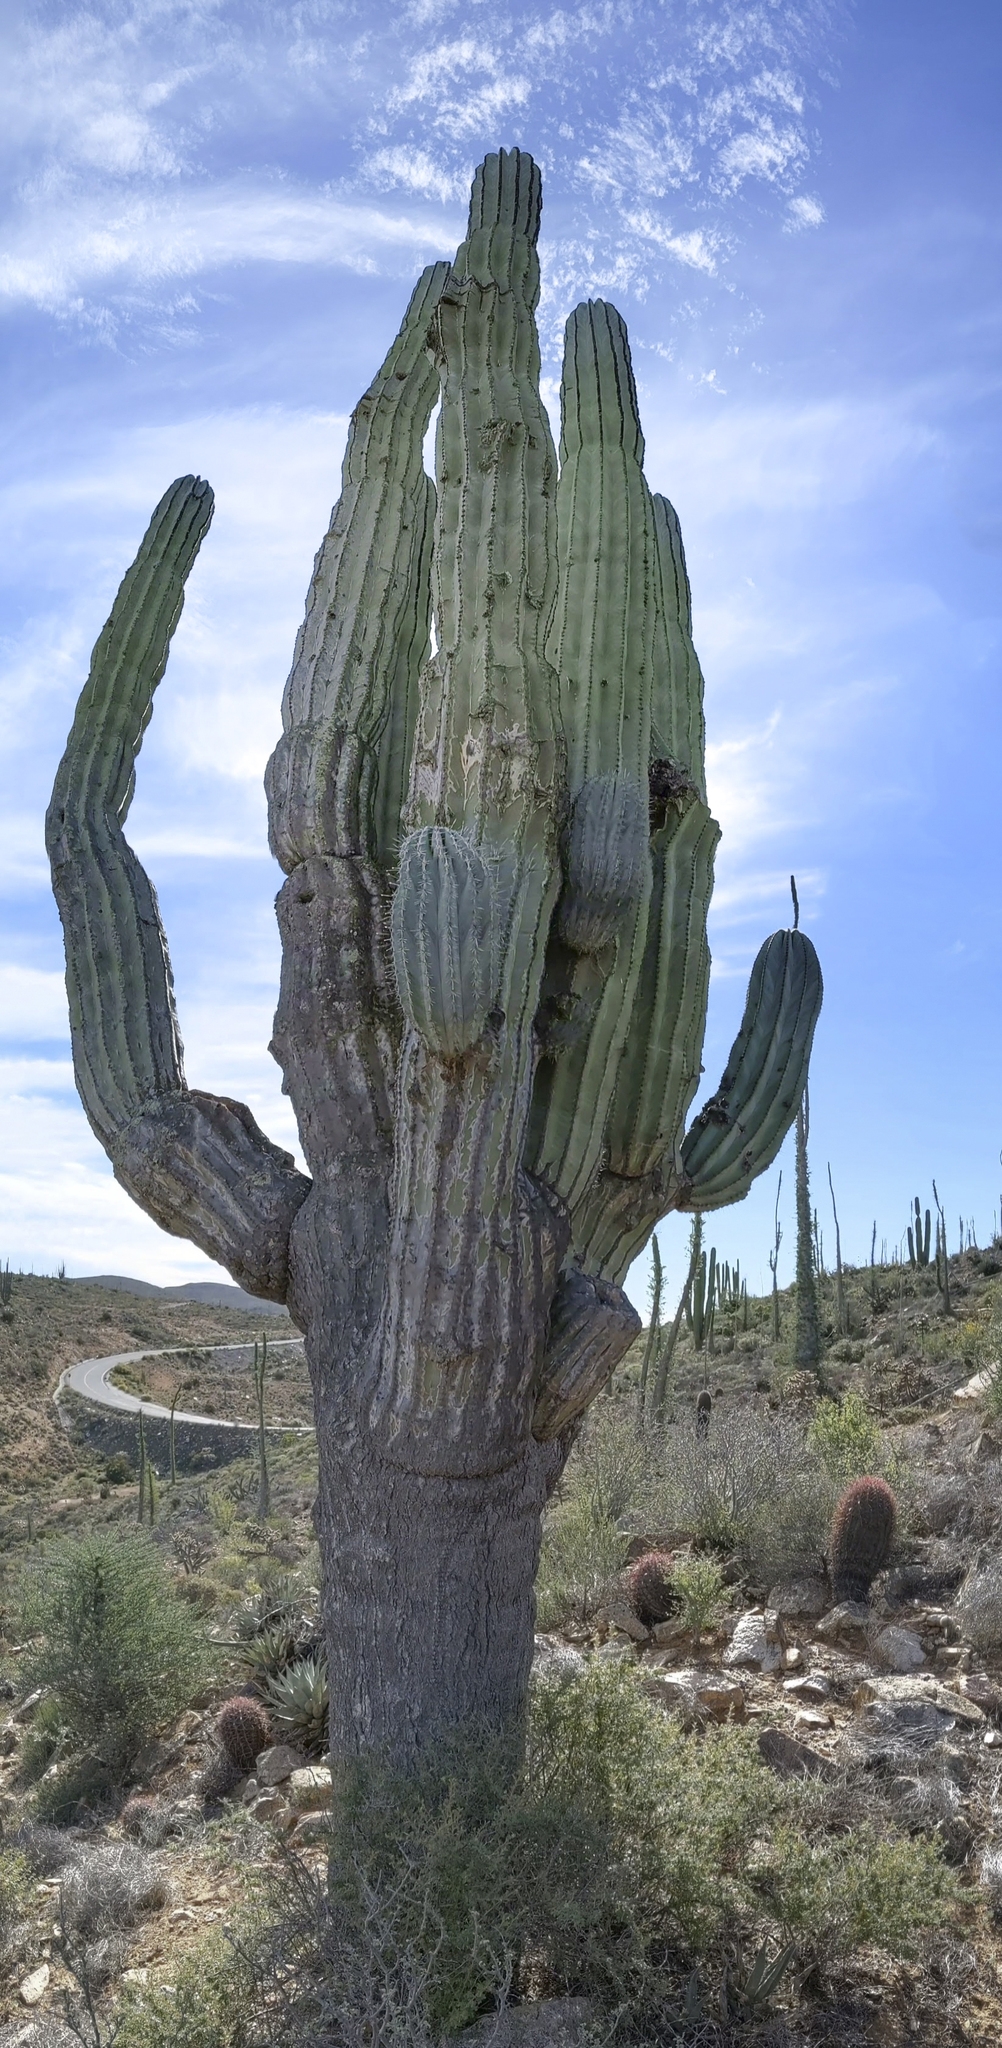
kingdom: Plantae
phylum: Tracheophyta
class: Magnoliopsida
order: Caryophyllales
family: Cactaceae
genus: Pachycereus
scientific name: Pachycereus pringlei
